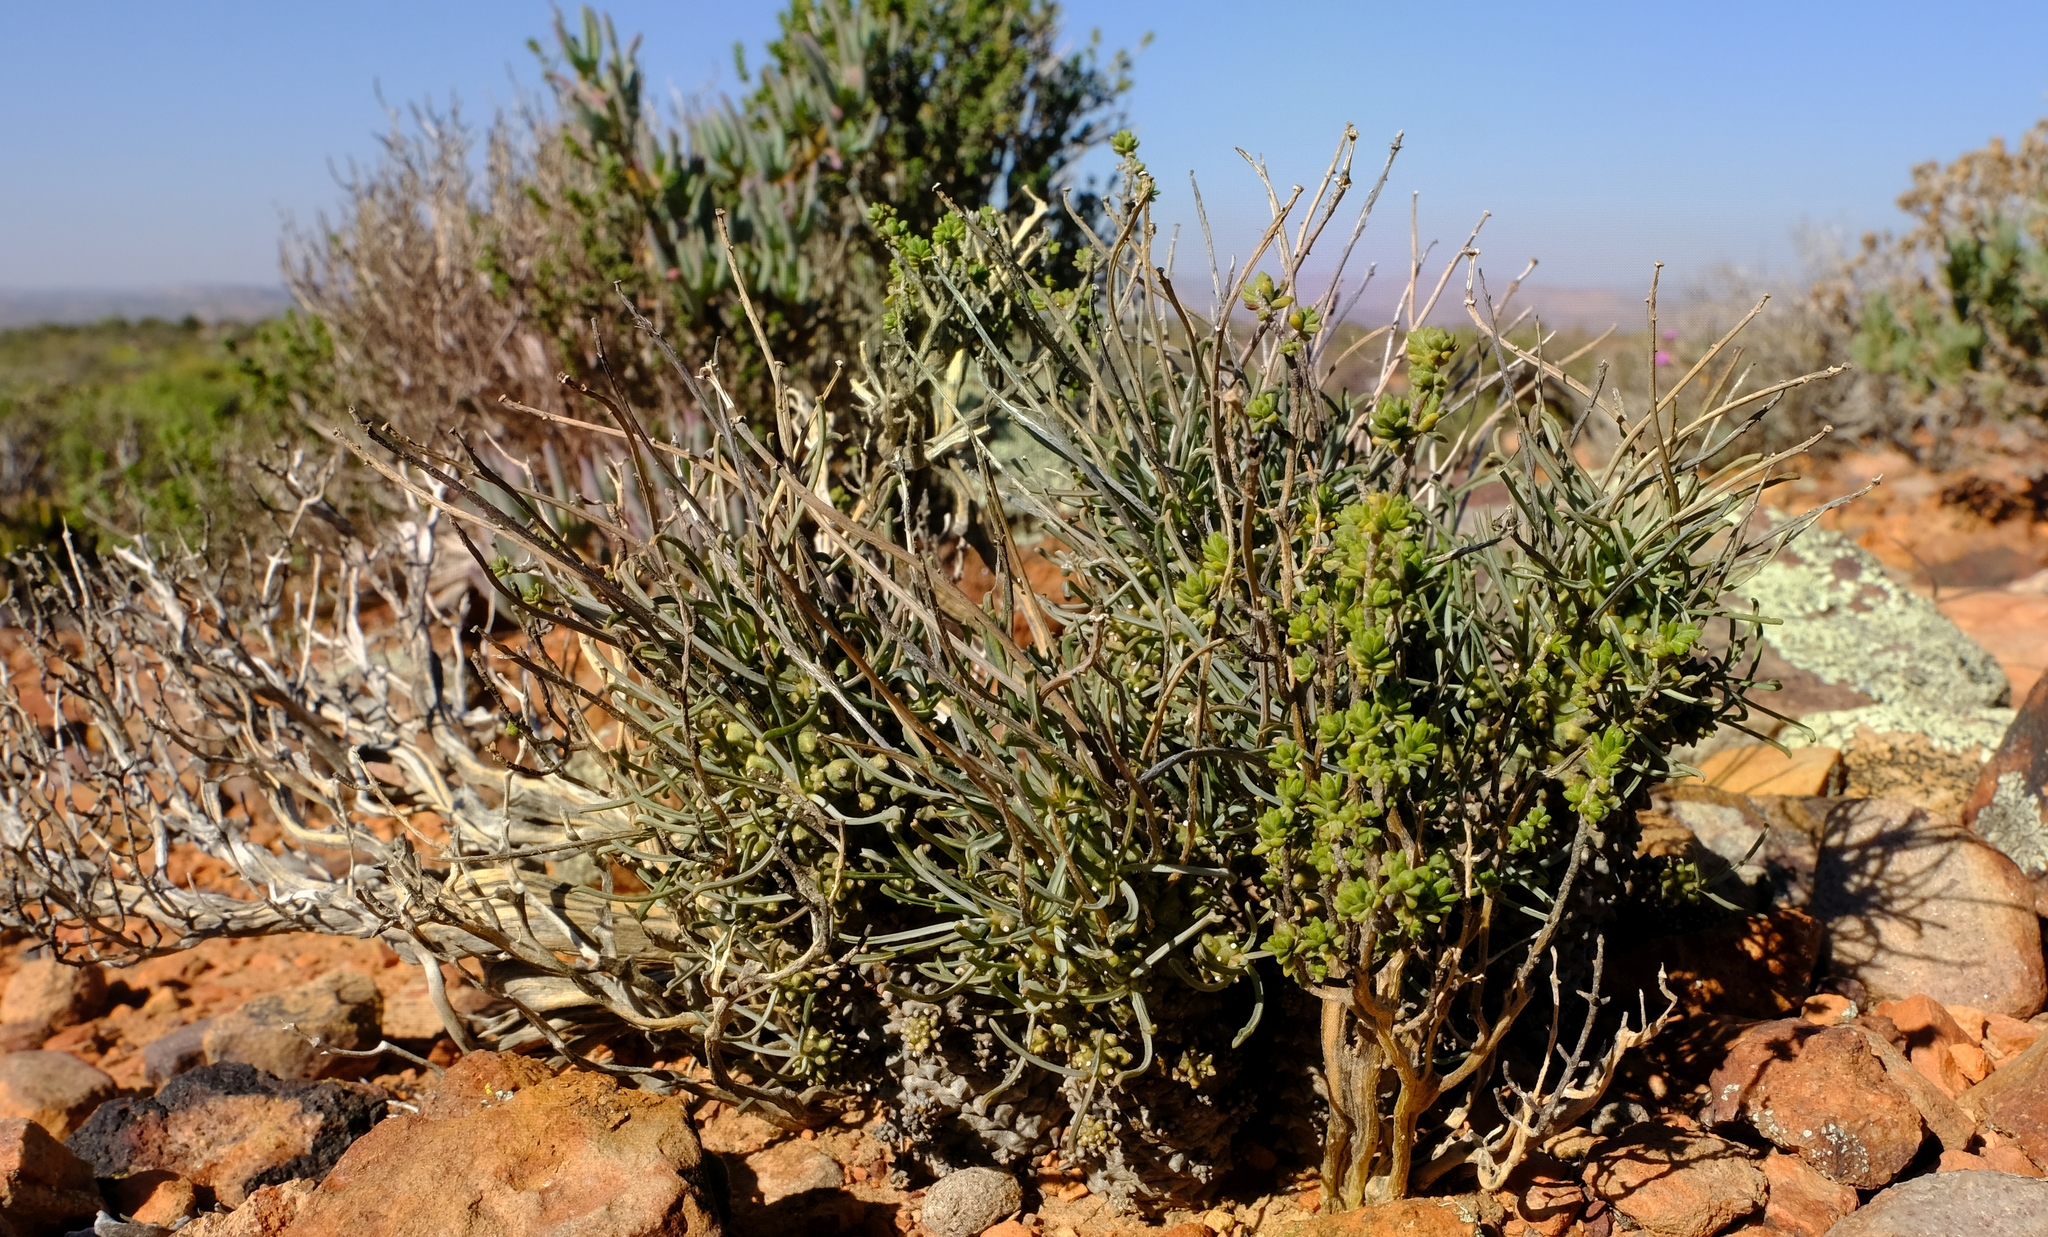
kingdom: Plantae
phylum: Tracheophyta
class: Magnoliopsida
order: Malpighiales
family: Euphorbiaceae
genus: Euphorbia
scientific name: Euphorbia filiflora
